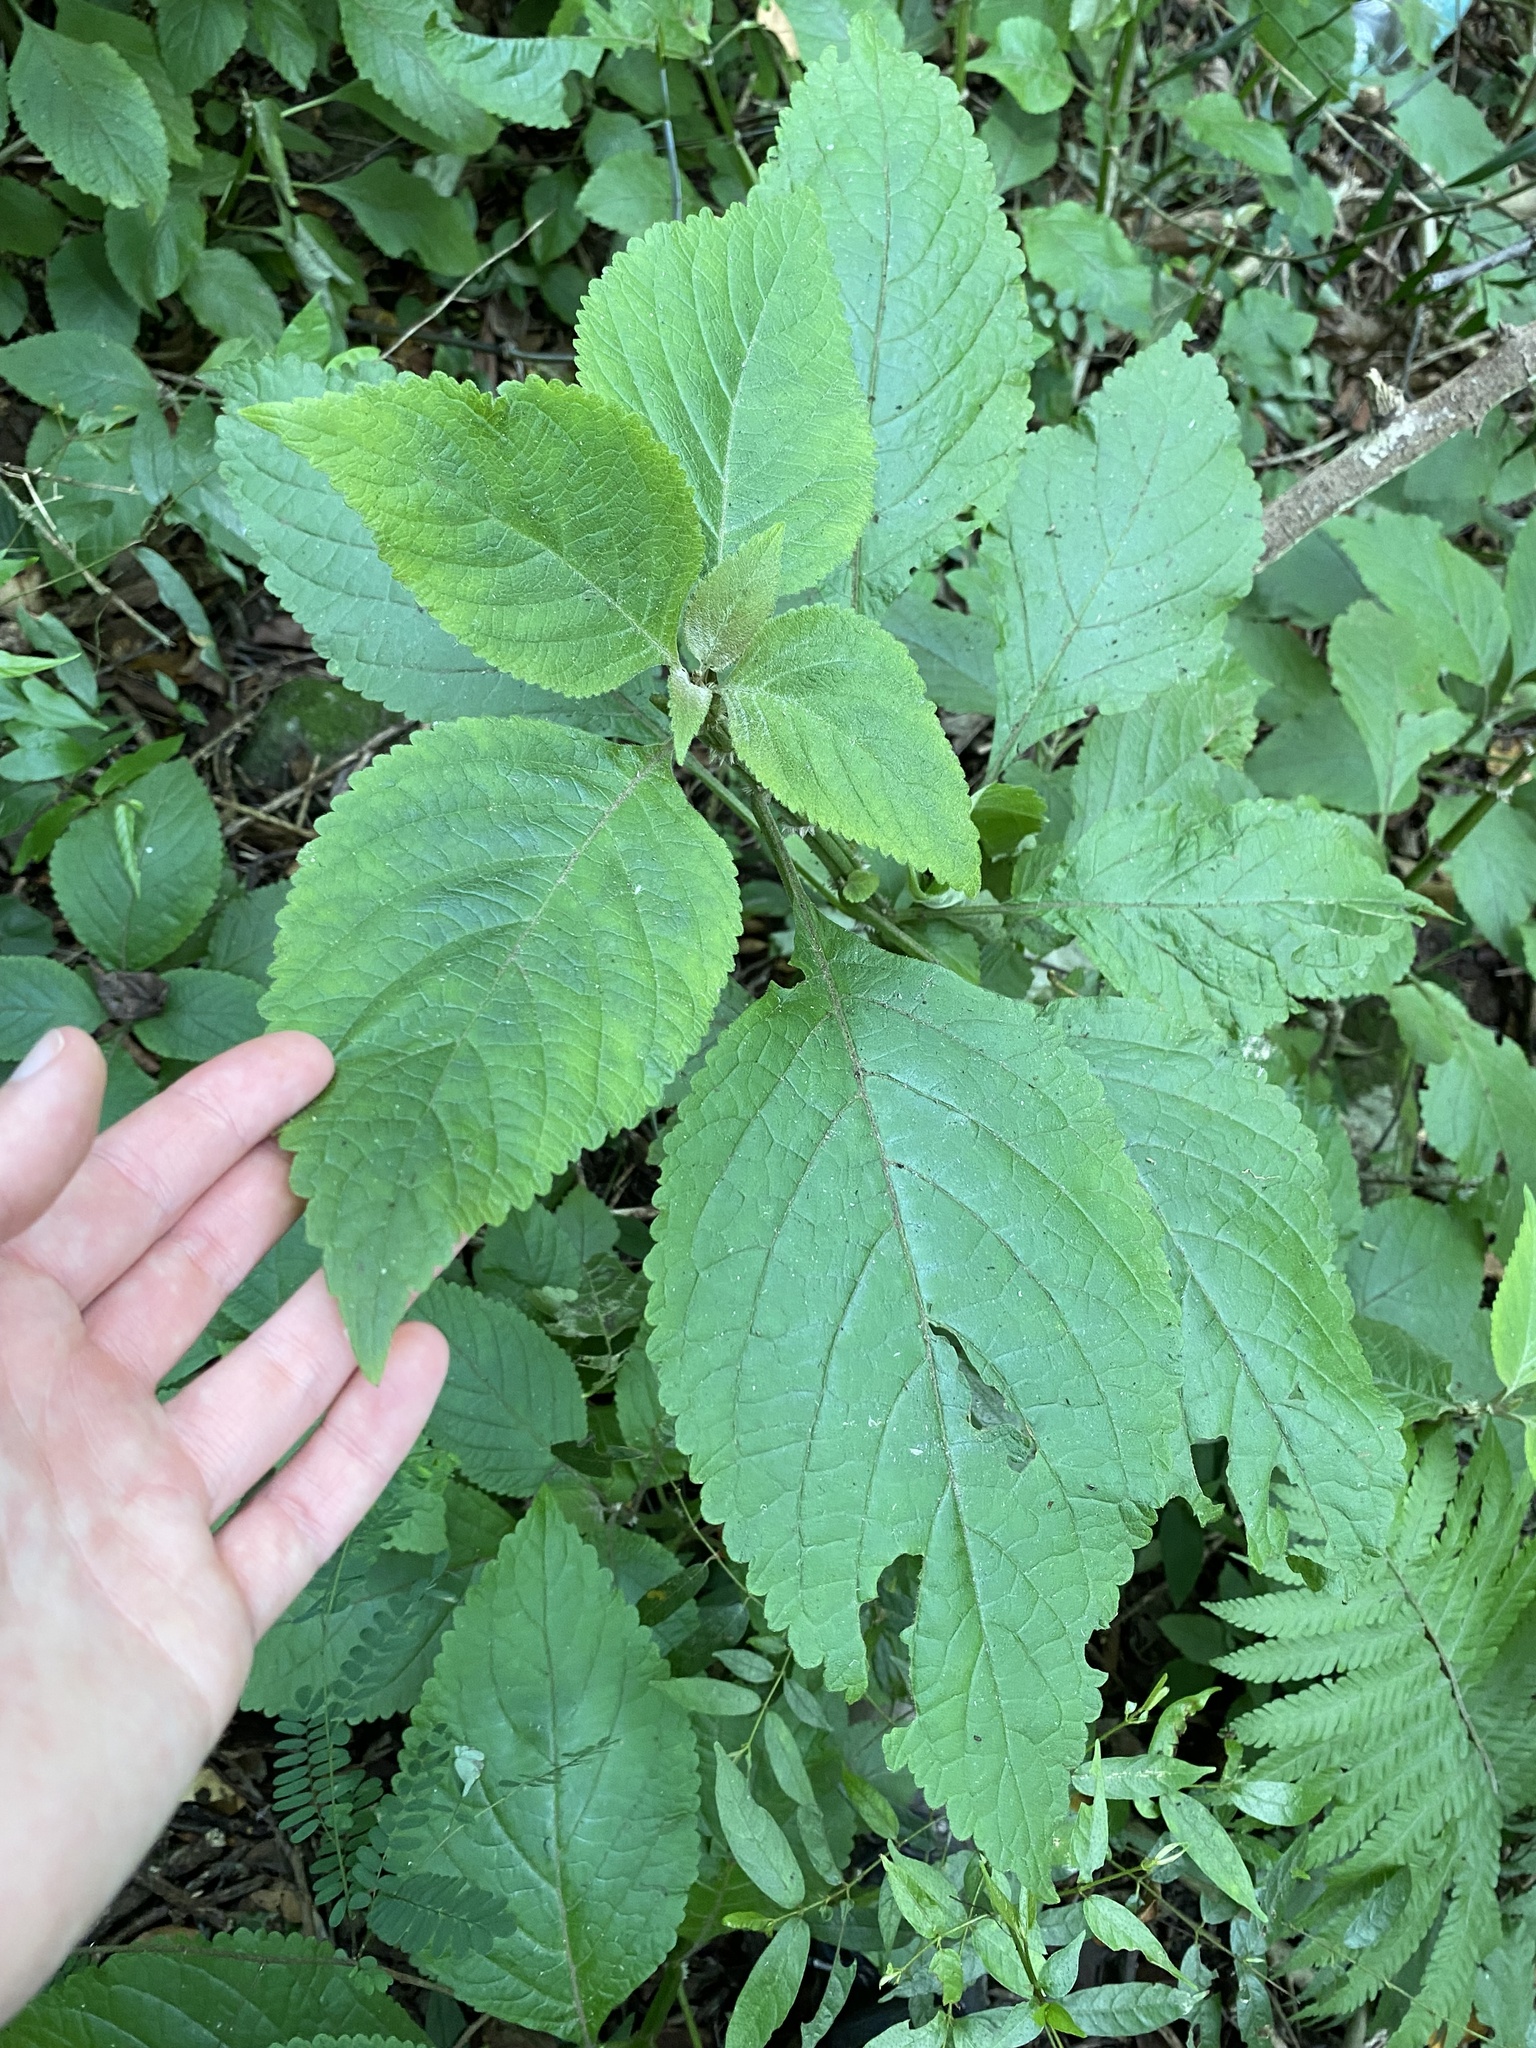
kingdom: Plantae
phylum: Tracheophyta
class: Magnoliopsida
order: Lamiales
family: Lamiaceae
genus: Plectranthus
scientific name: Plectranthus ecklonii
